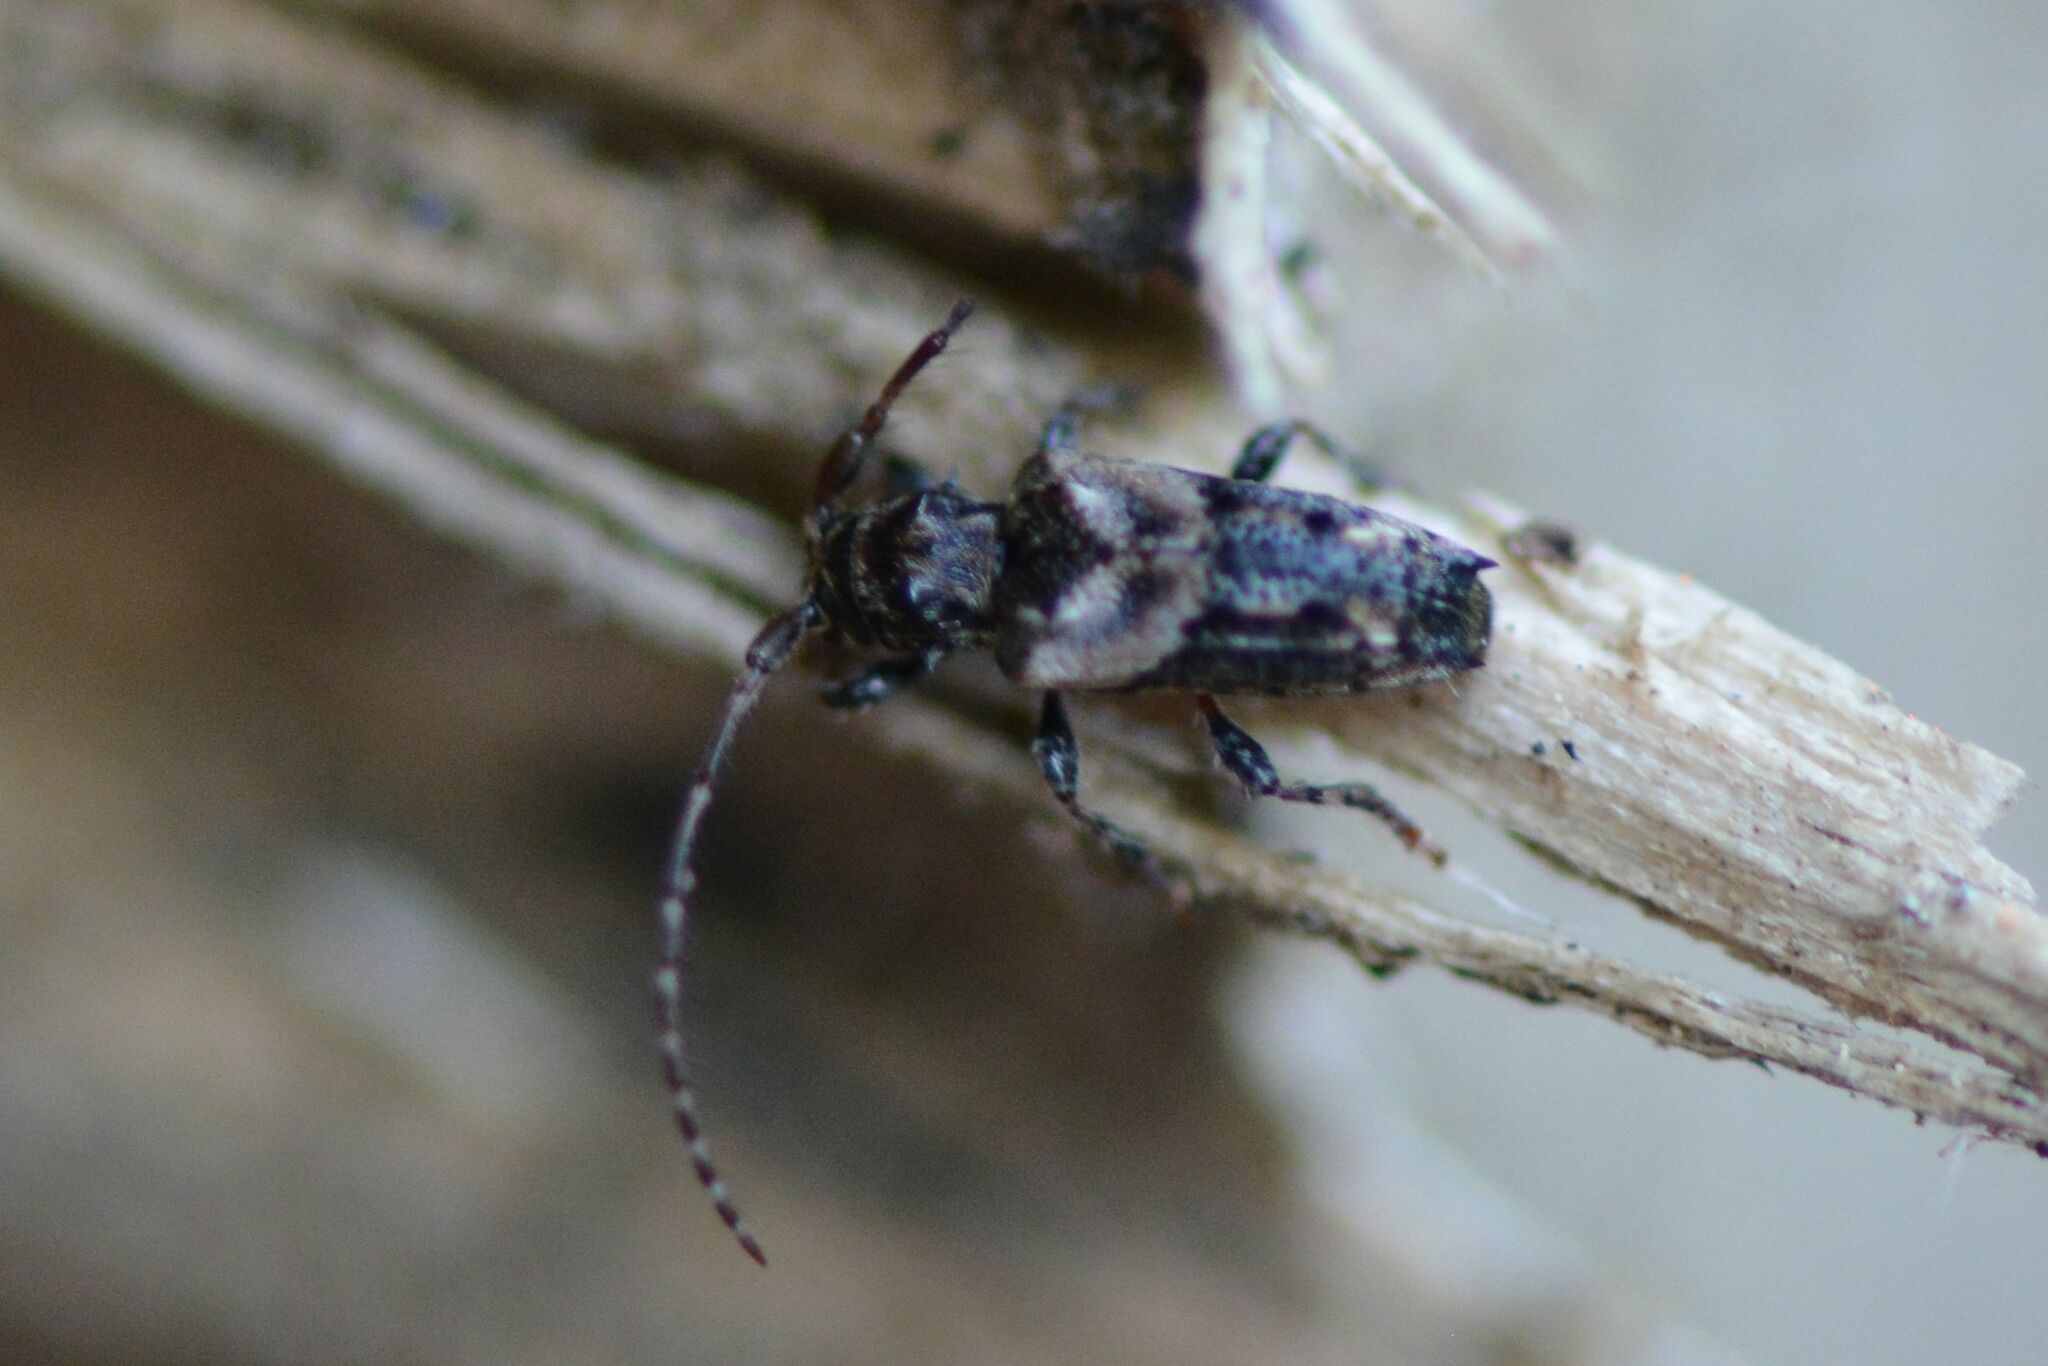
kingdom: Animalia
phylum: Arthropoda
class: Insecta
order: Coleoptera
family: Cerambycidae
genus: Pogonocherus
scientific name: Pogonocherus hispidus
